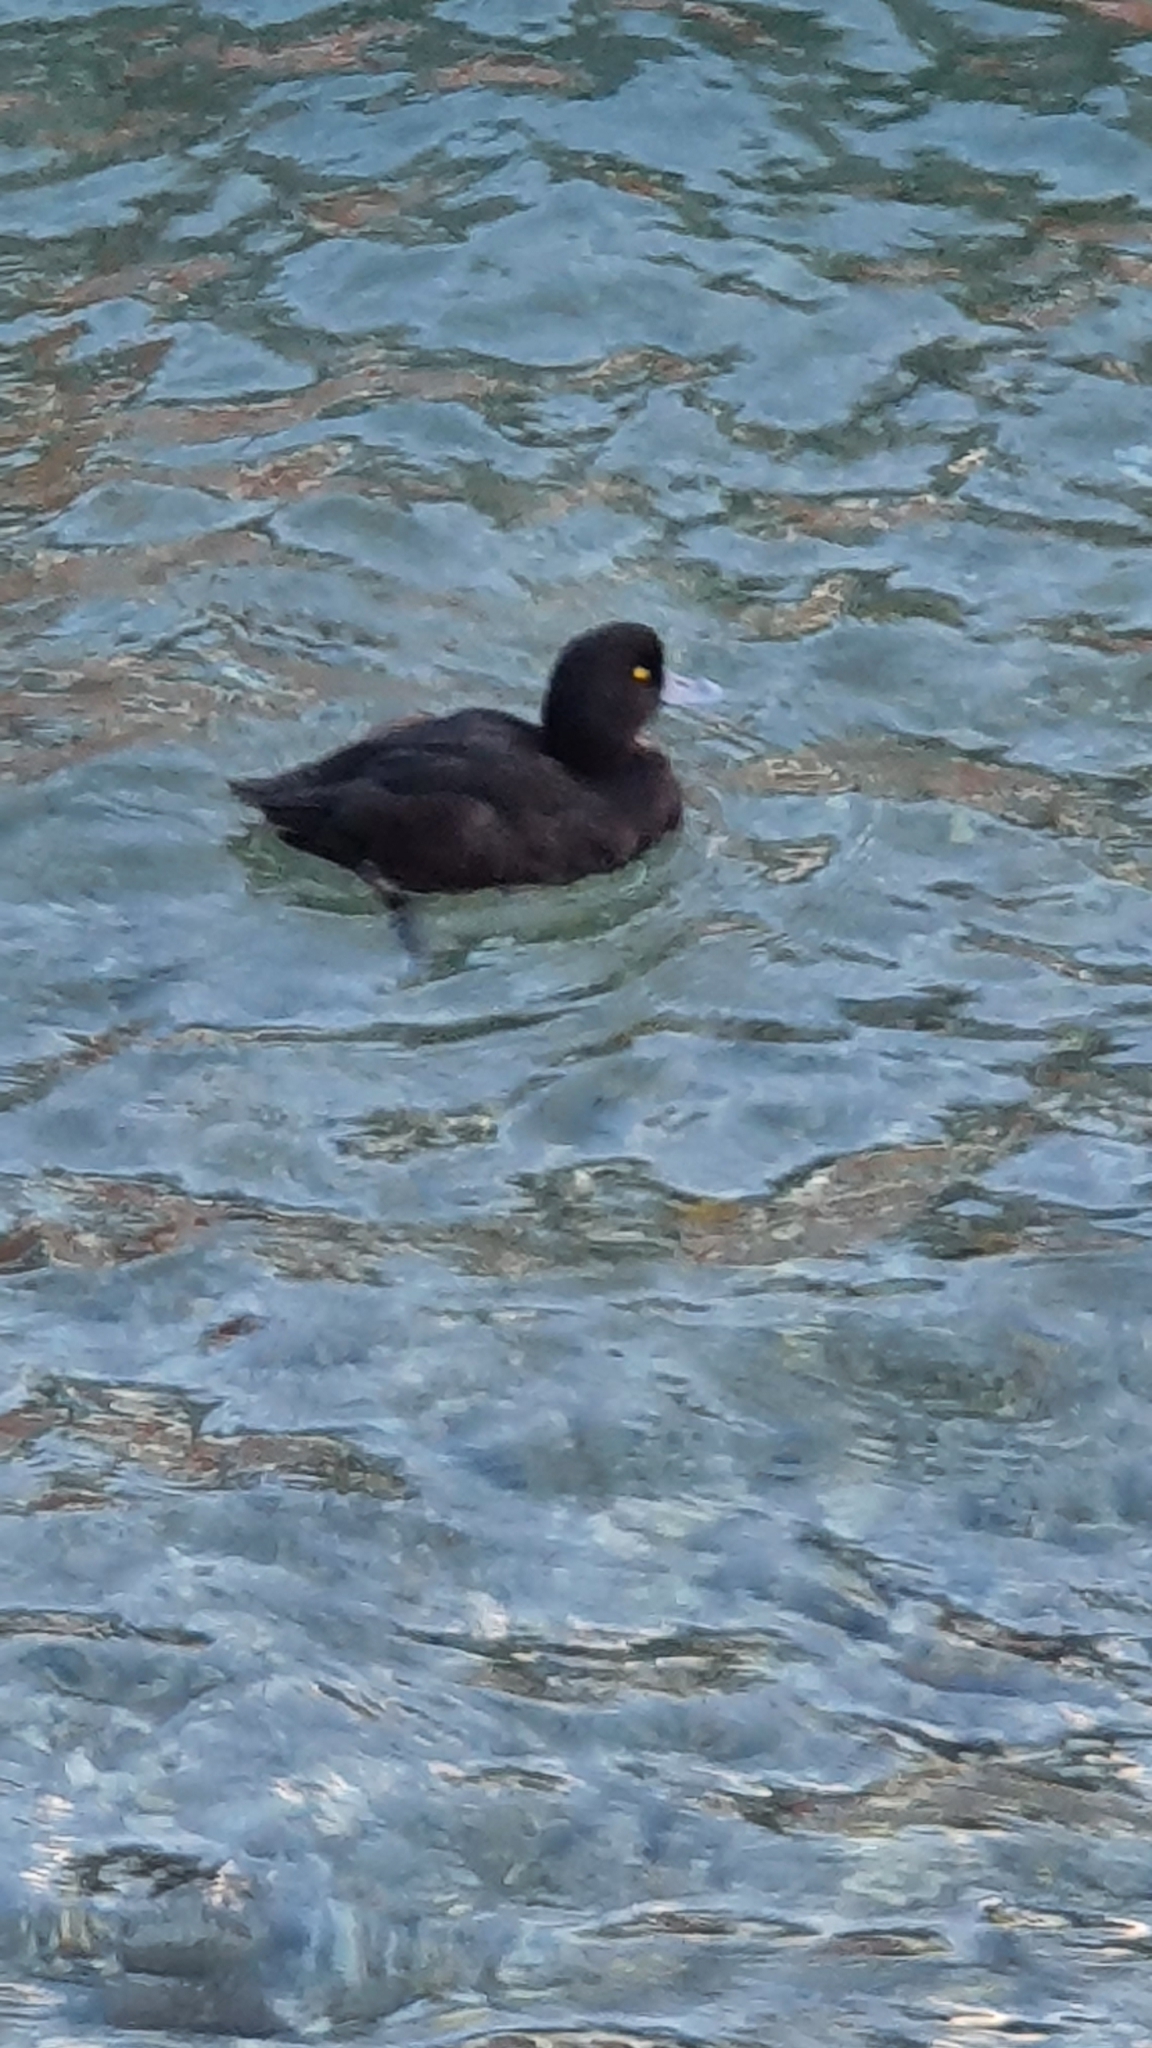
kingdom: Animalia
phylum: Chordata
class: Aves
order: Anseriformes
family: Anatidae
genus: Aythya
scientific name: Aythya novaeseelandiae
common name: New zealand scaup
